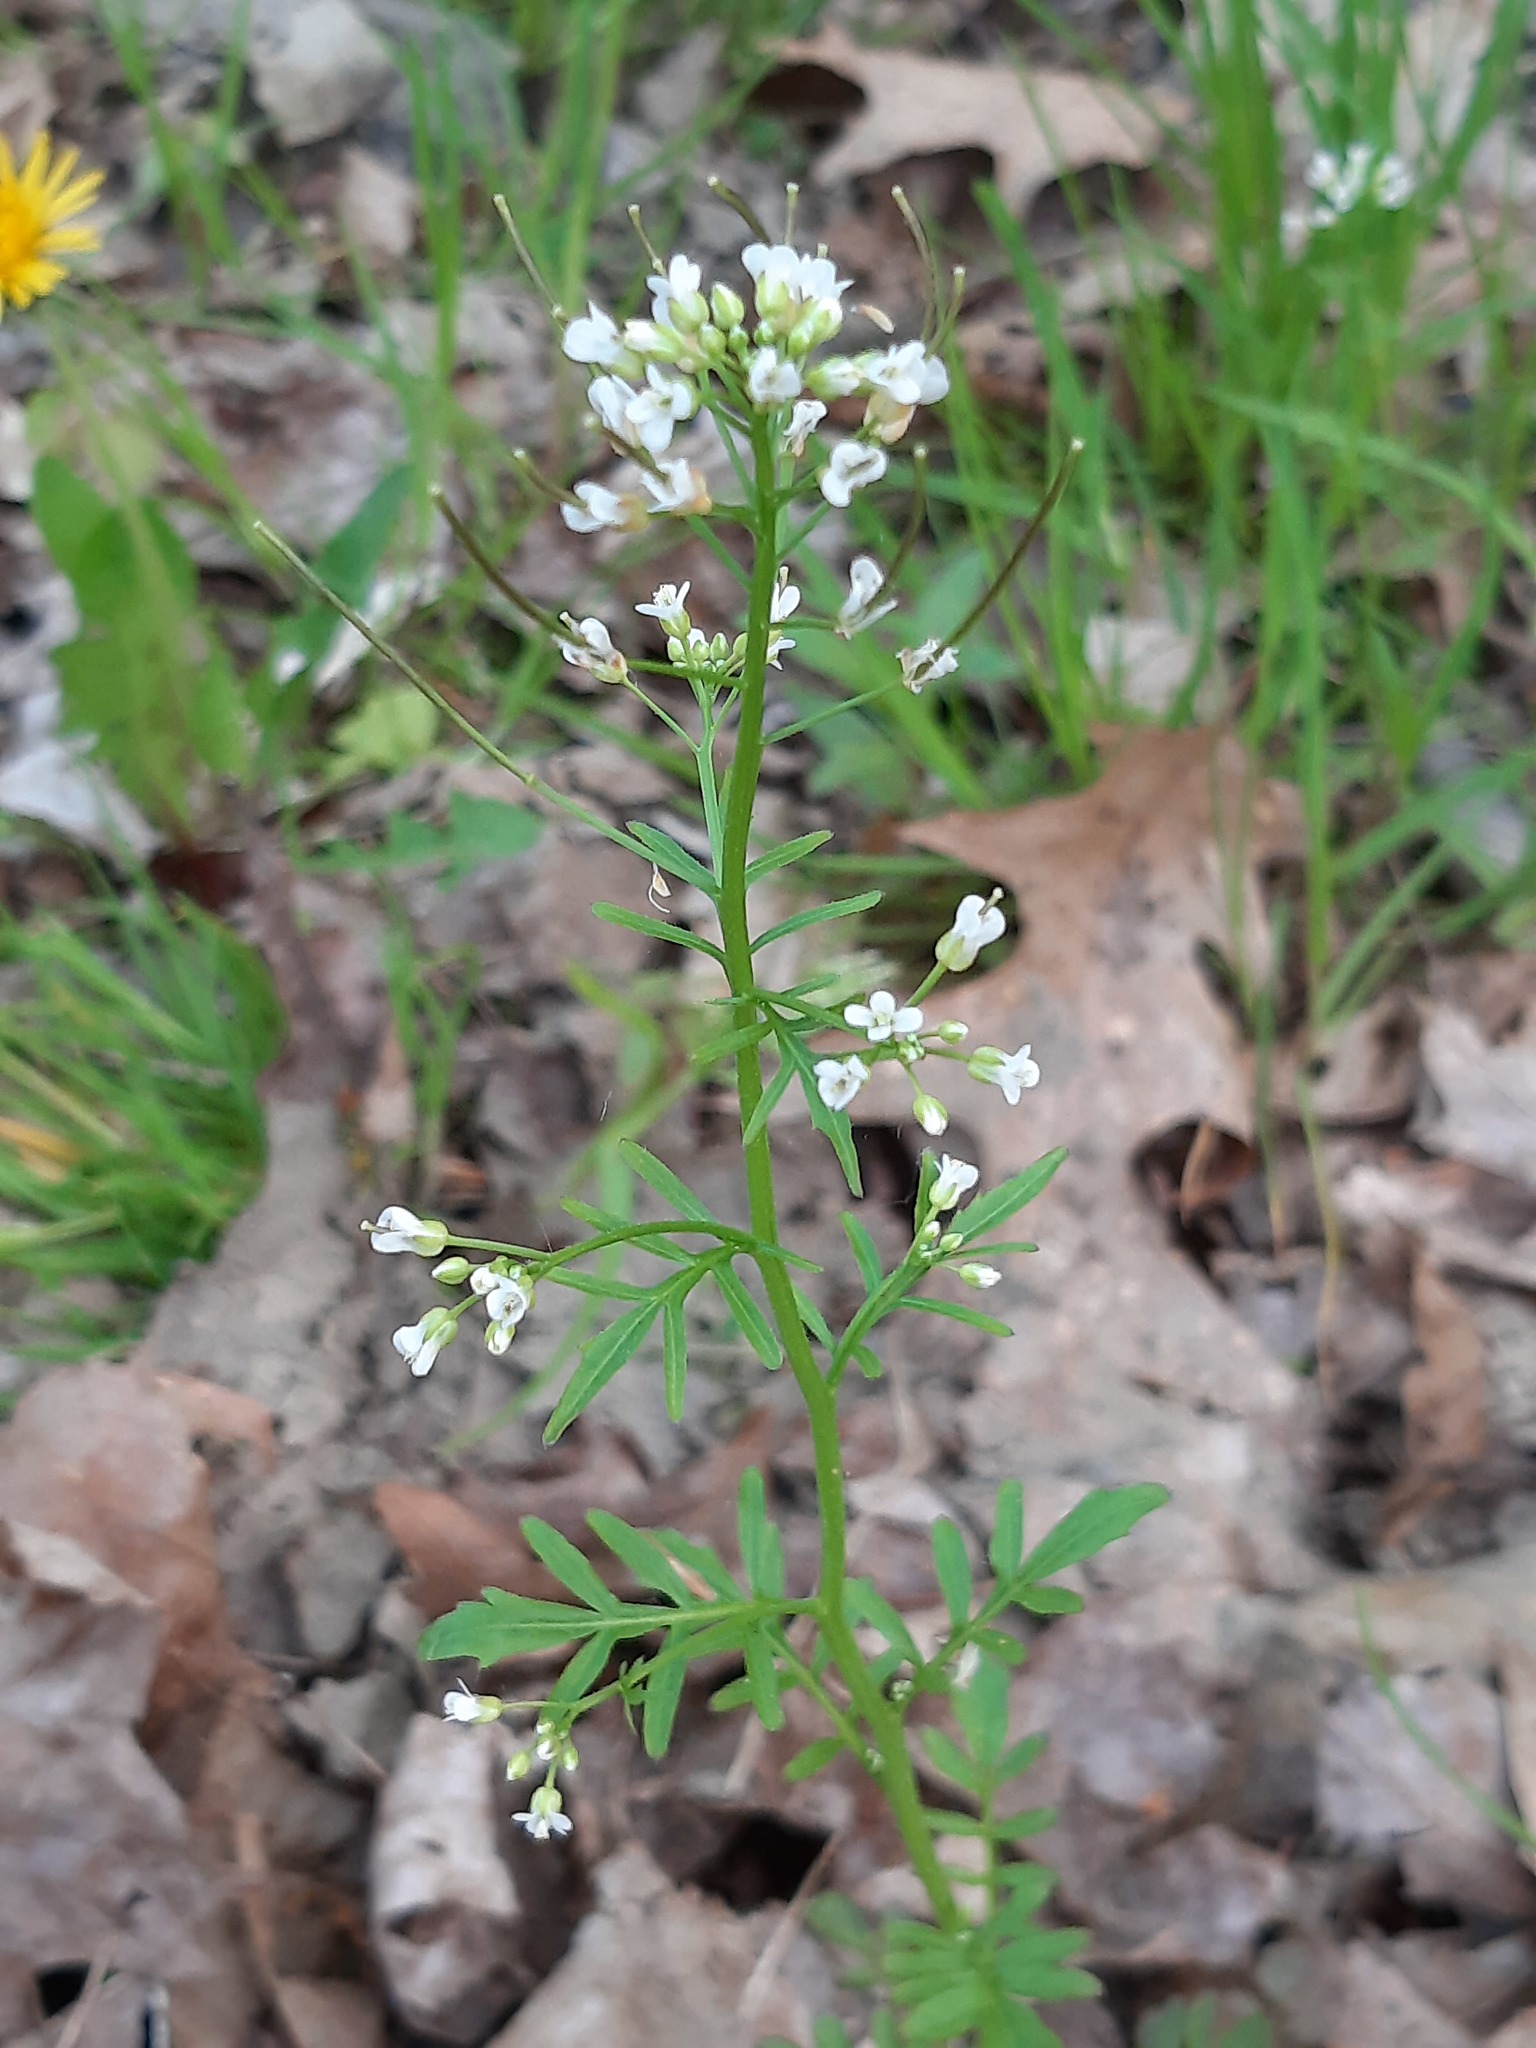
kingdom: Plantae
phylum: Tracheophyta
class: Magnoliopsida
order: Brassicales
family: Brassicaceae
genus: Cardamine
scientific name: Cardamine pensylvanica
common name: Pennsylvania bittercress
